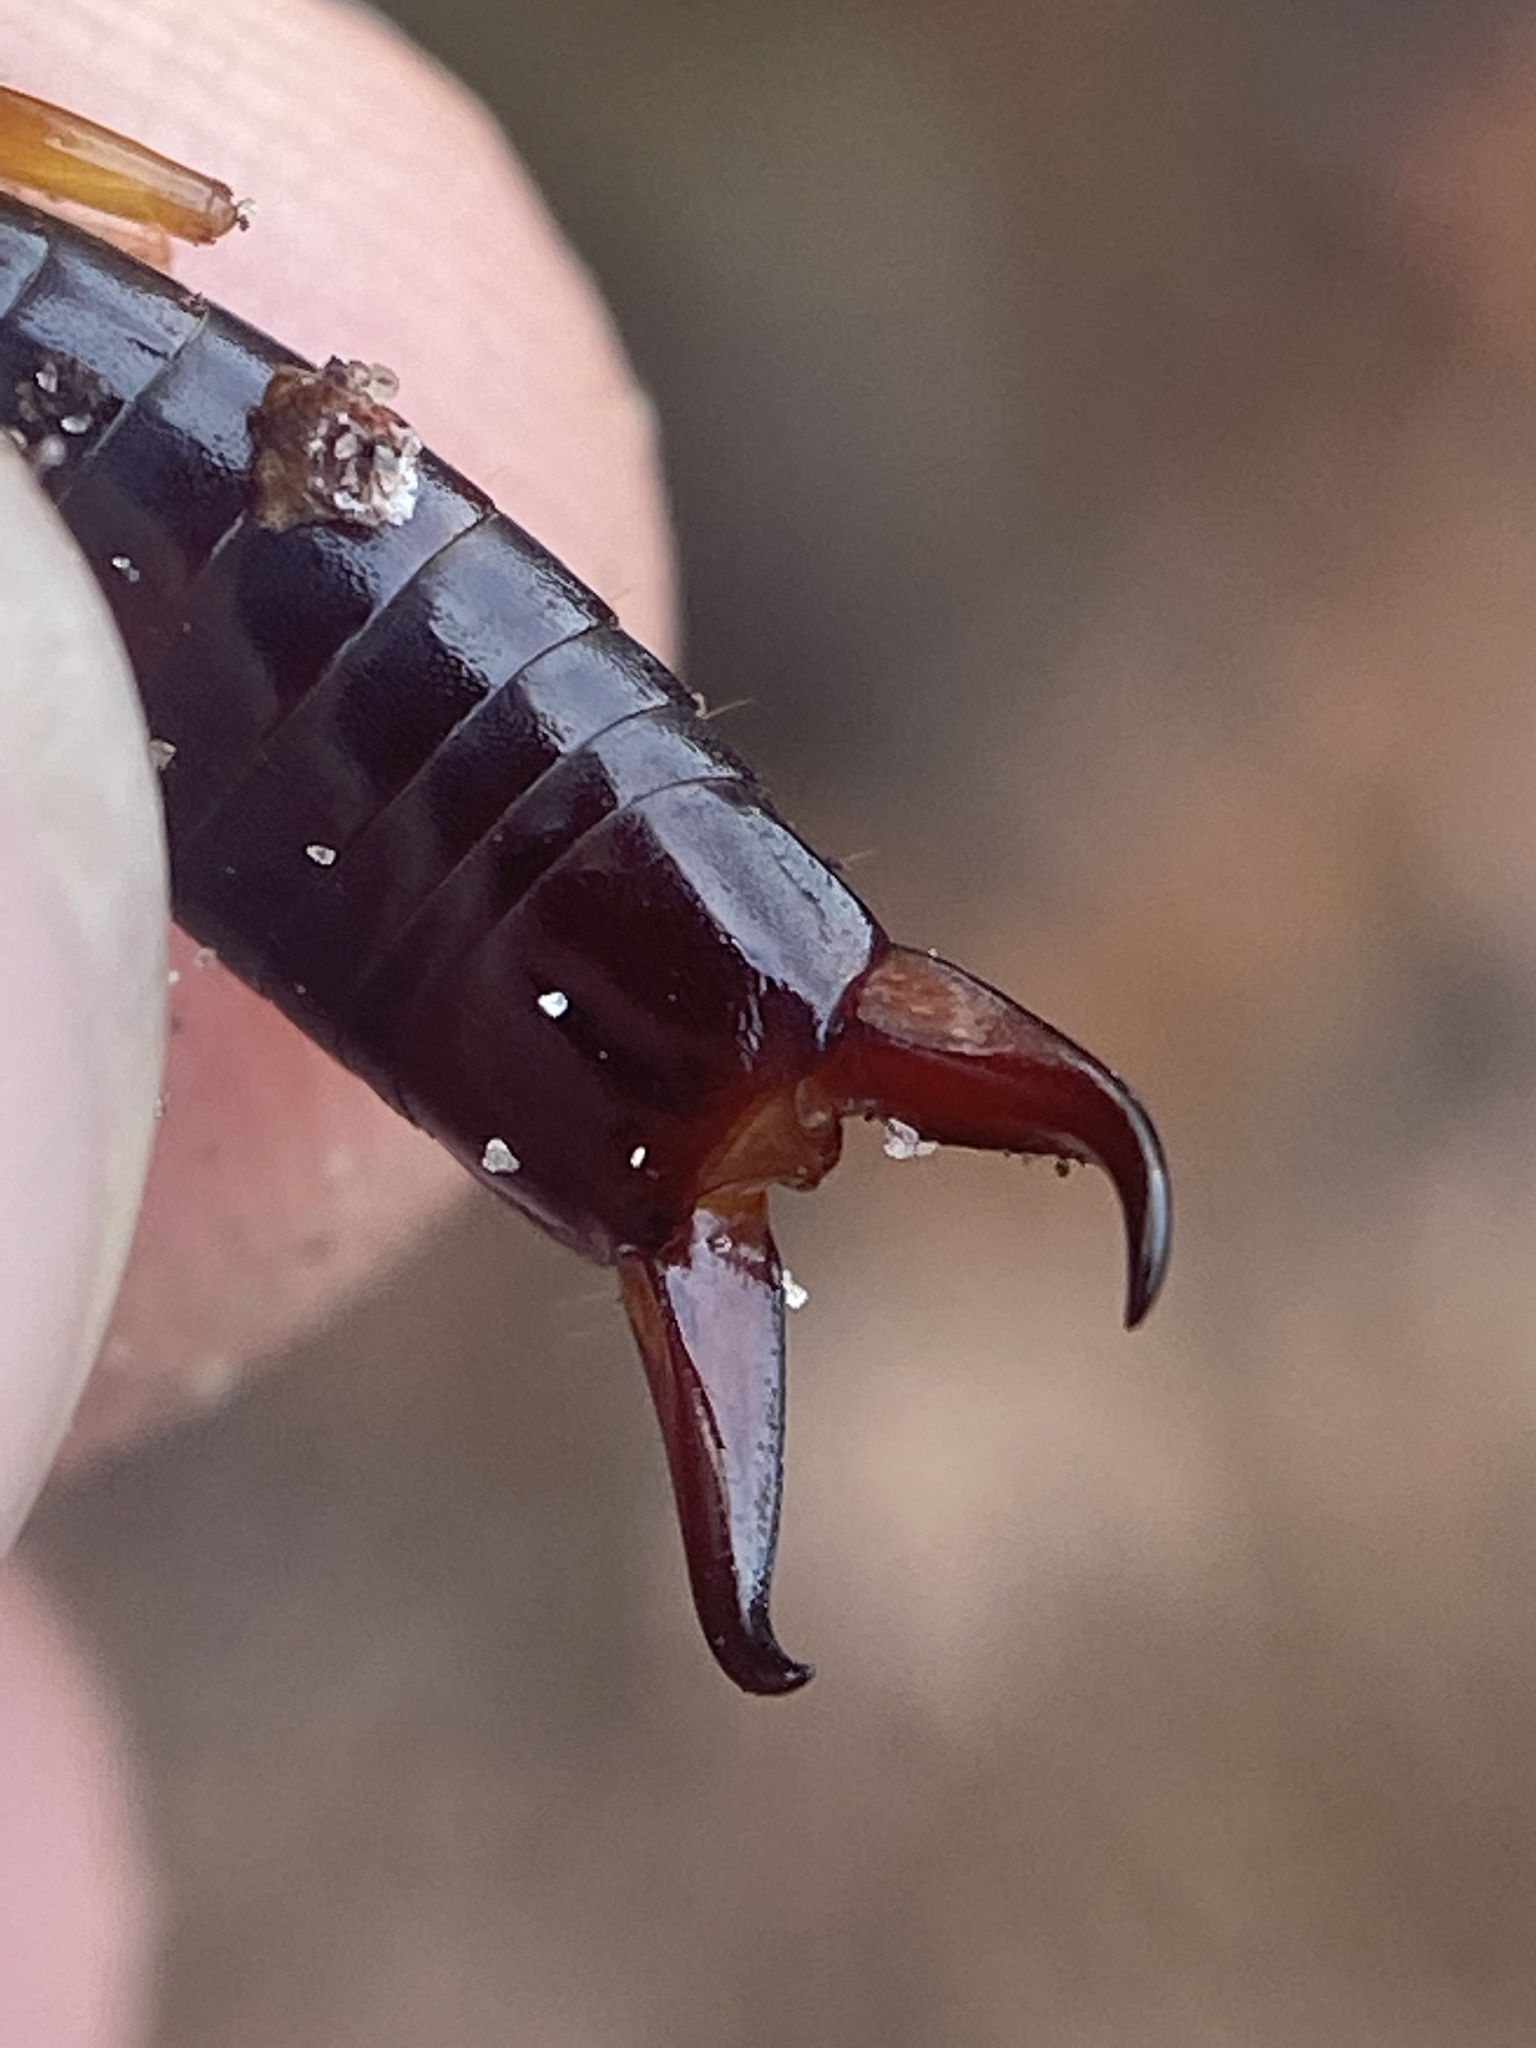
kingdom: Animalia
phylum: Arthropoda
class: Insecta
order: Dermaptera
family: Anisolabididae
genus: Euborellia
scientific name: Euborellia arcanum
